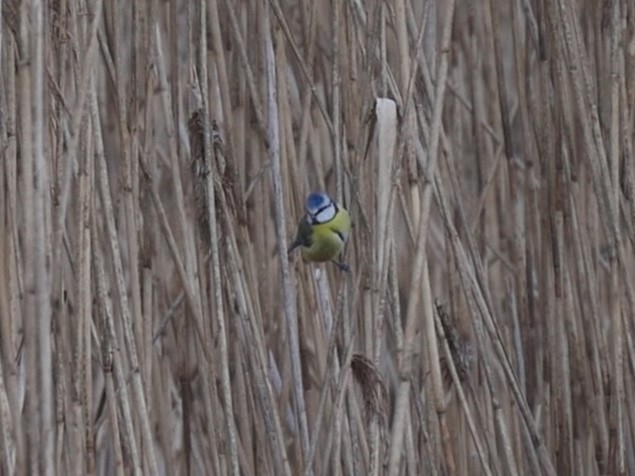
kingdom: Animalia
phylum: Chordata
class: Aves
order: Passeriformes
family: Paridae
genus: Cyanistes
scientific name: Cyanistes caeruleus
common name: Eurasian blue tit
